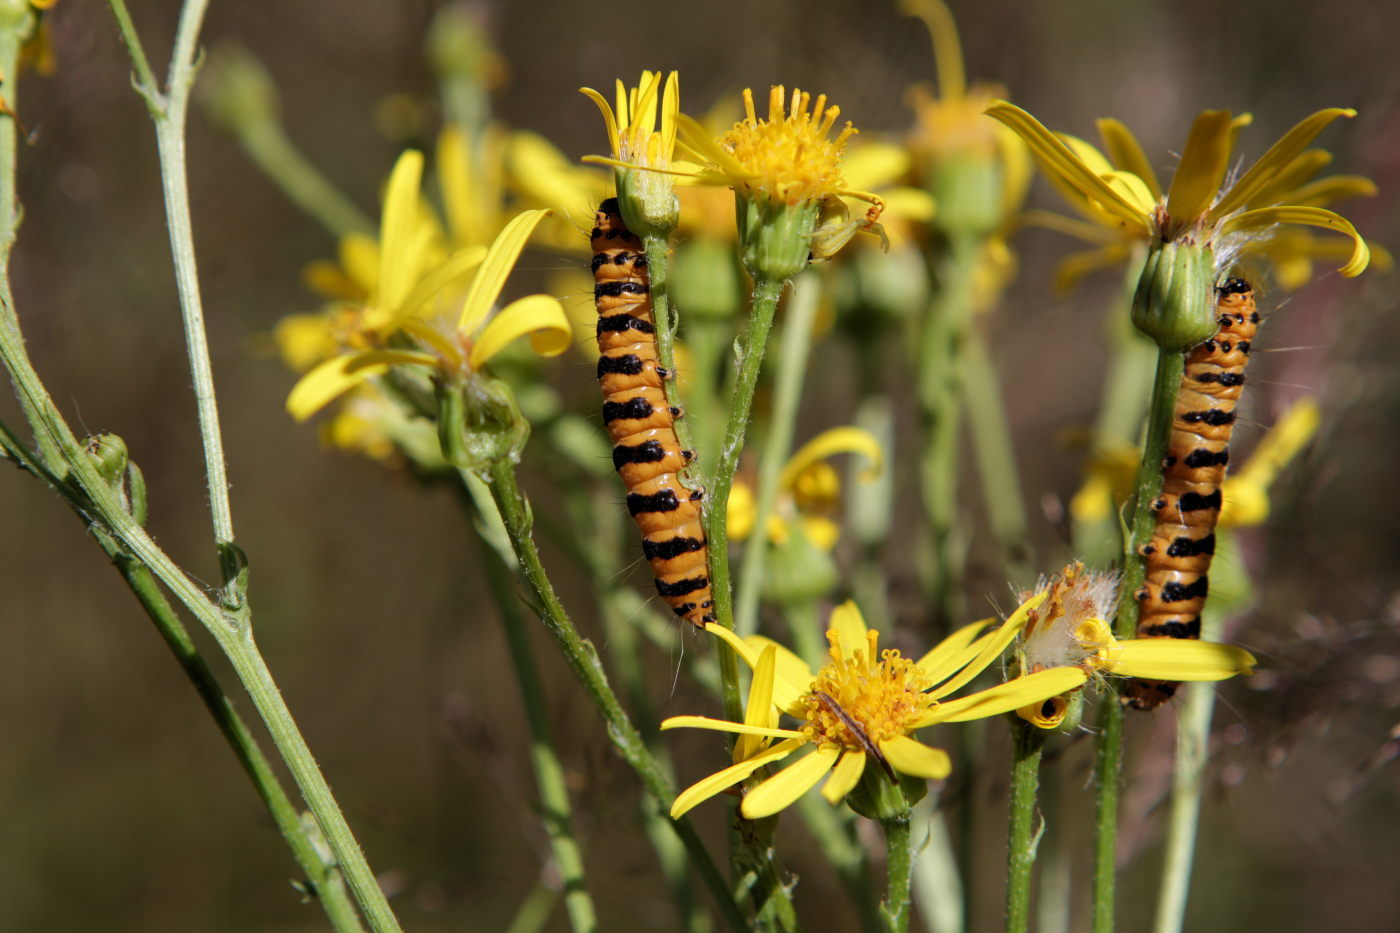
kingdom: Animalia
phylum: Arthropoda
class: Insecta
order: Lepidoptera
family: Erebidae
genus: Tyria
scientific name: Tyria jacobaeae
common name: Cinnabar
